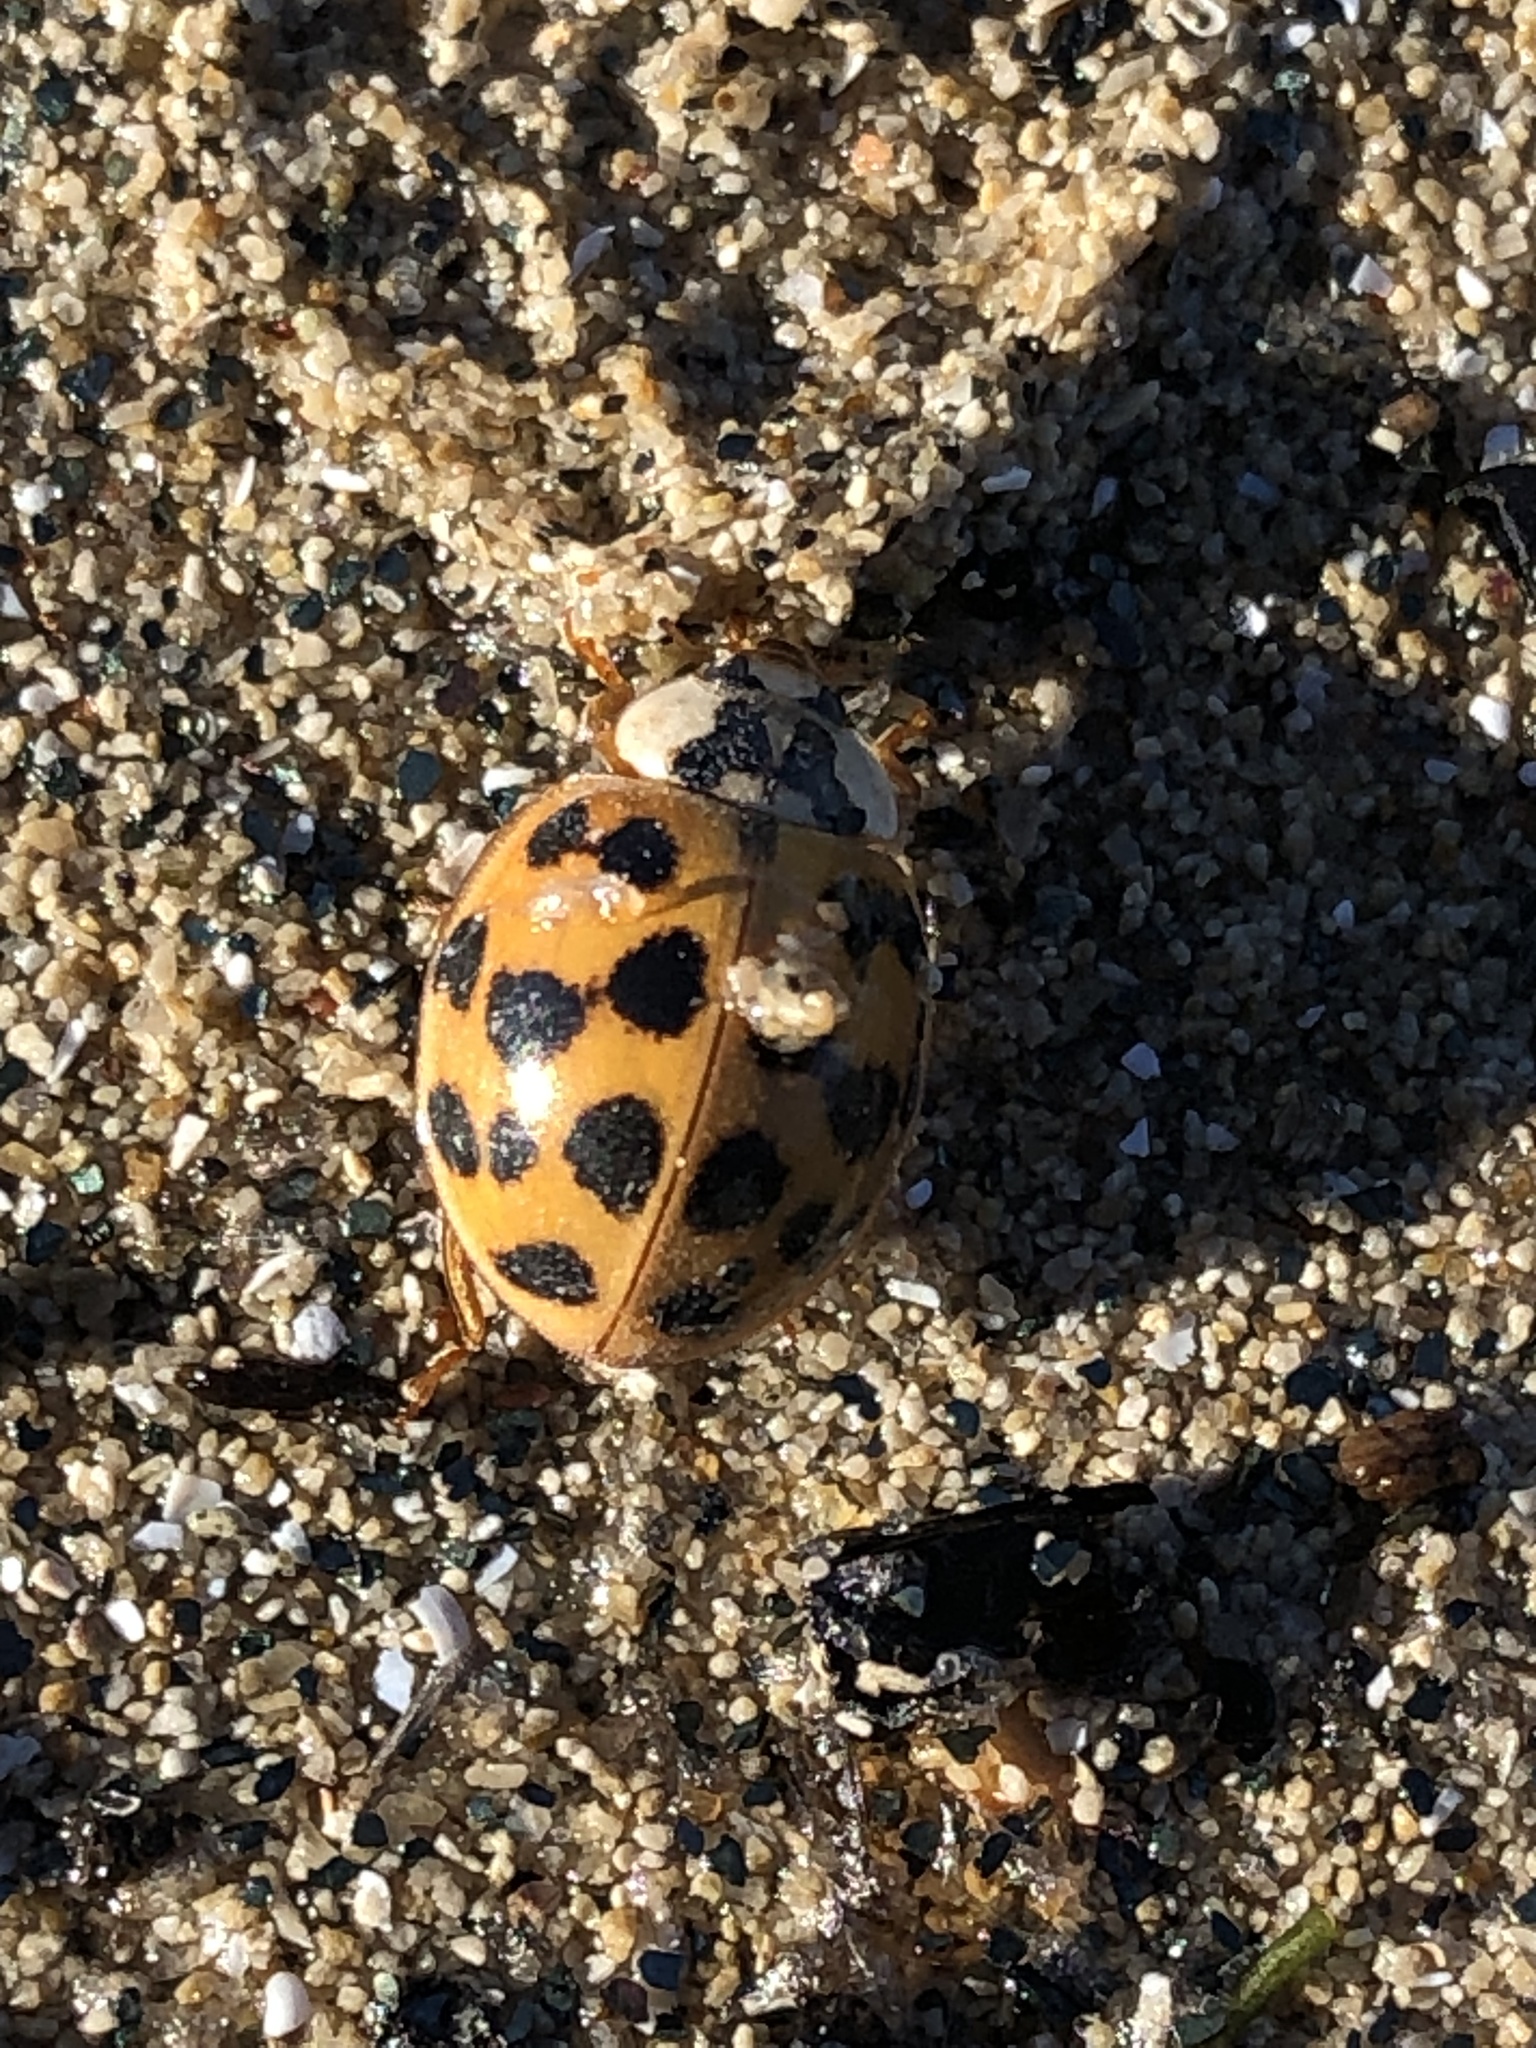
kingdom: Animalia
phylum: Arthropoda
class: Insecta
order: Coleoptera
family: Coccinellidae
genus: Harmonia
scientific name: Harmonia axyridis
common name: Harlequin ladybird
